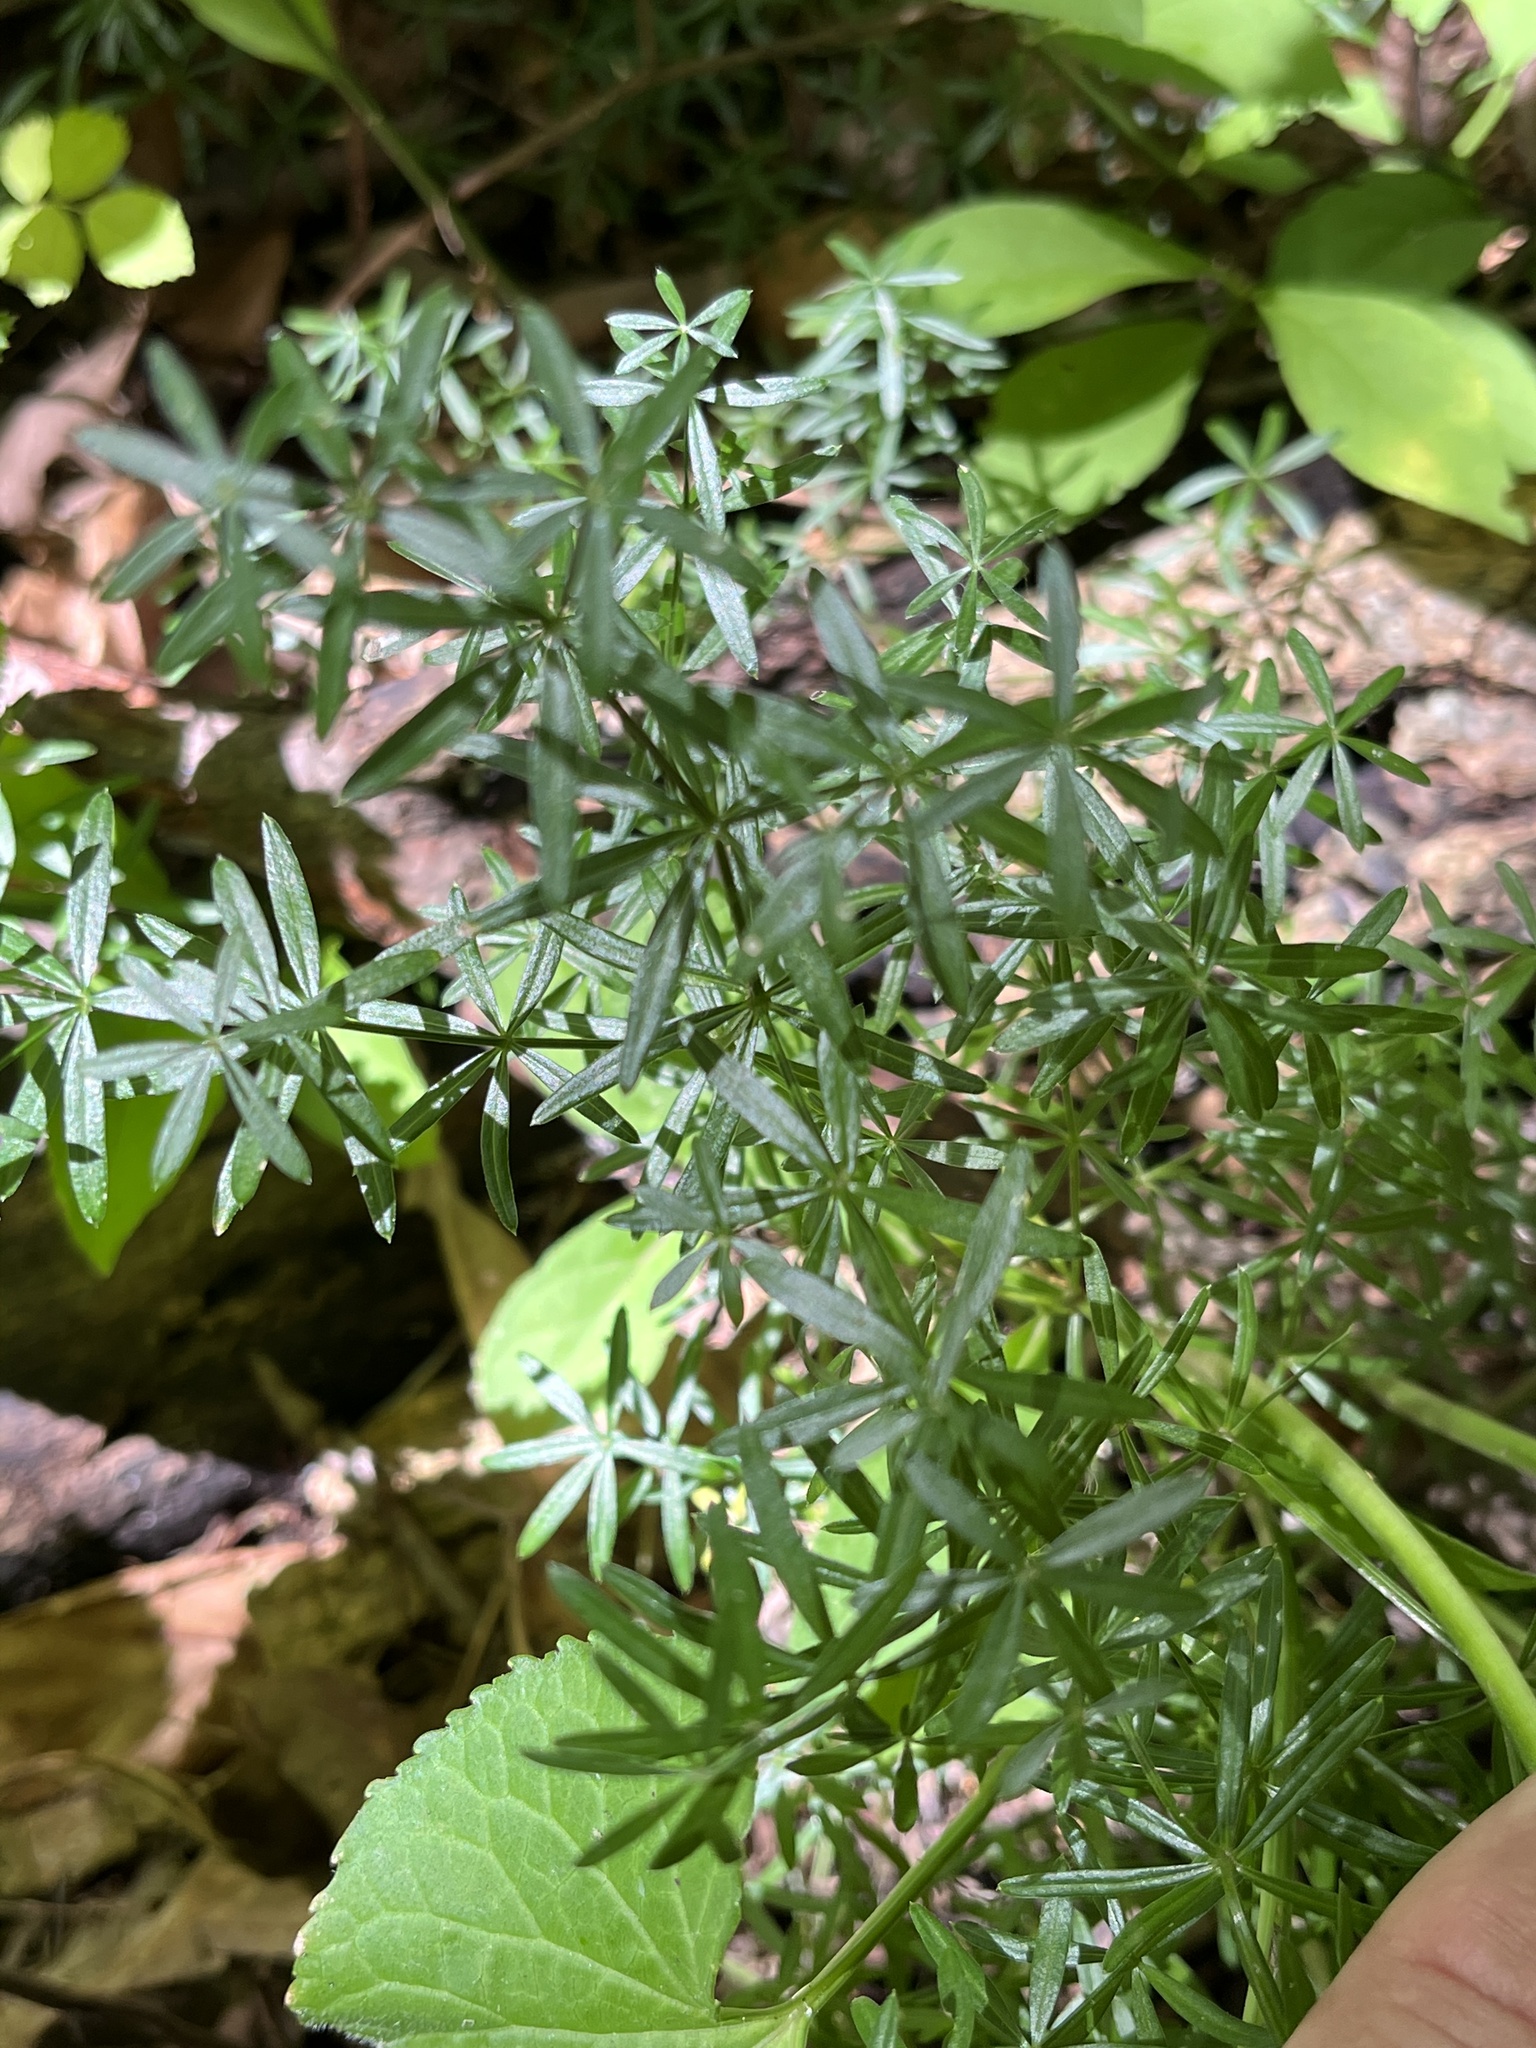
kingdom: Plantae
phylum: Tracheophyta
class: Magnoliopsida
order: Gentianales
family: Rubiaceae
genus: Galium
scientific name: Galium concinnum
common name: Shining bedstraw
